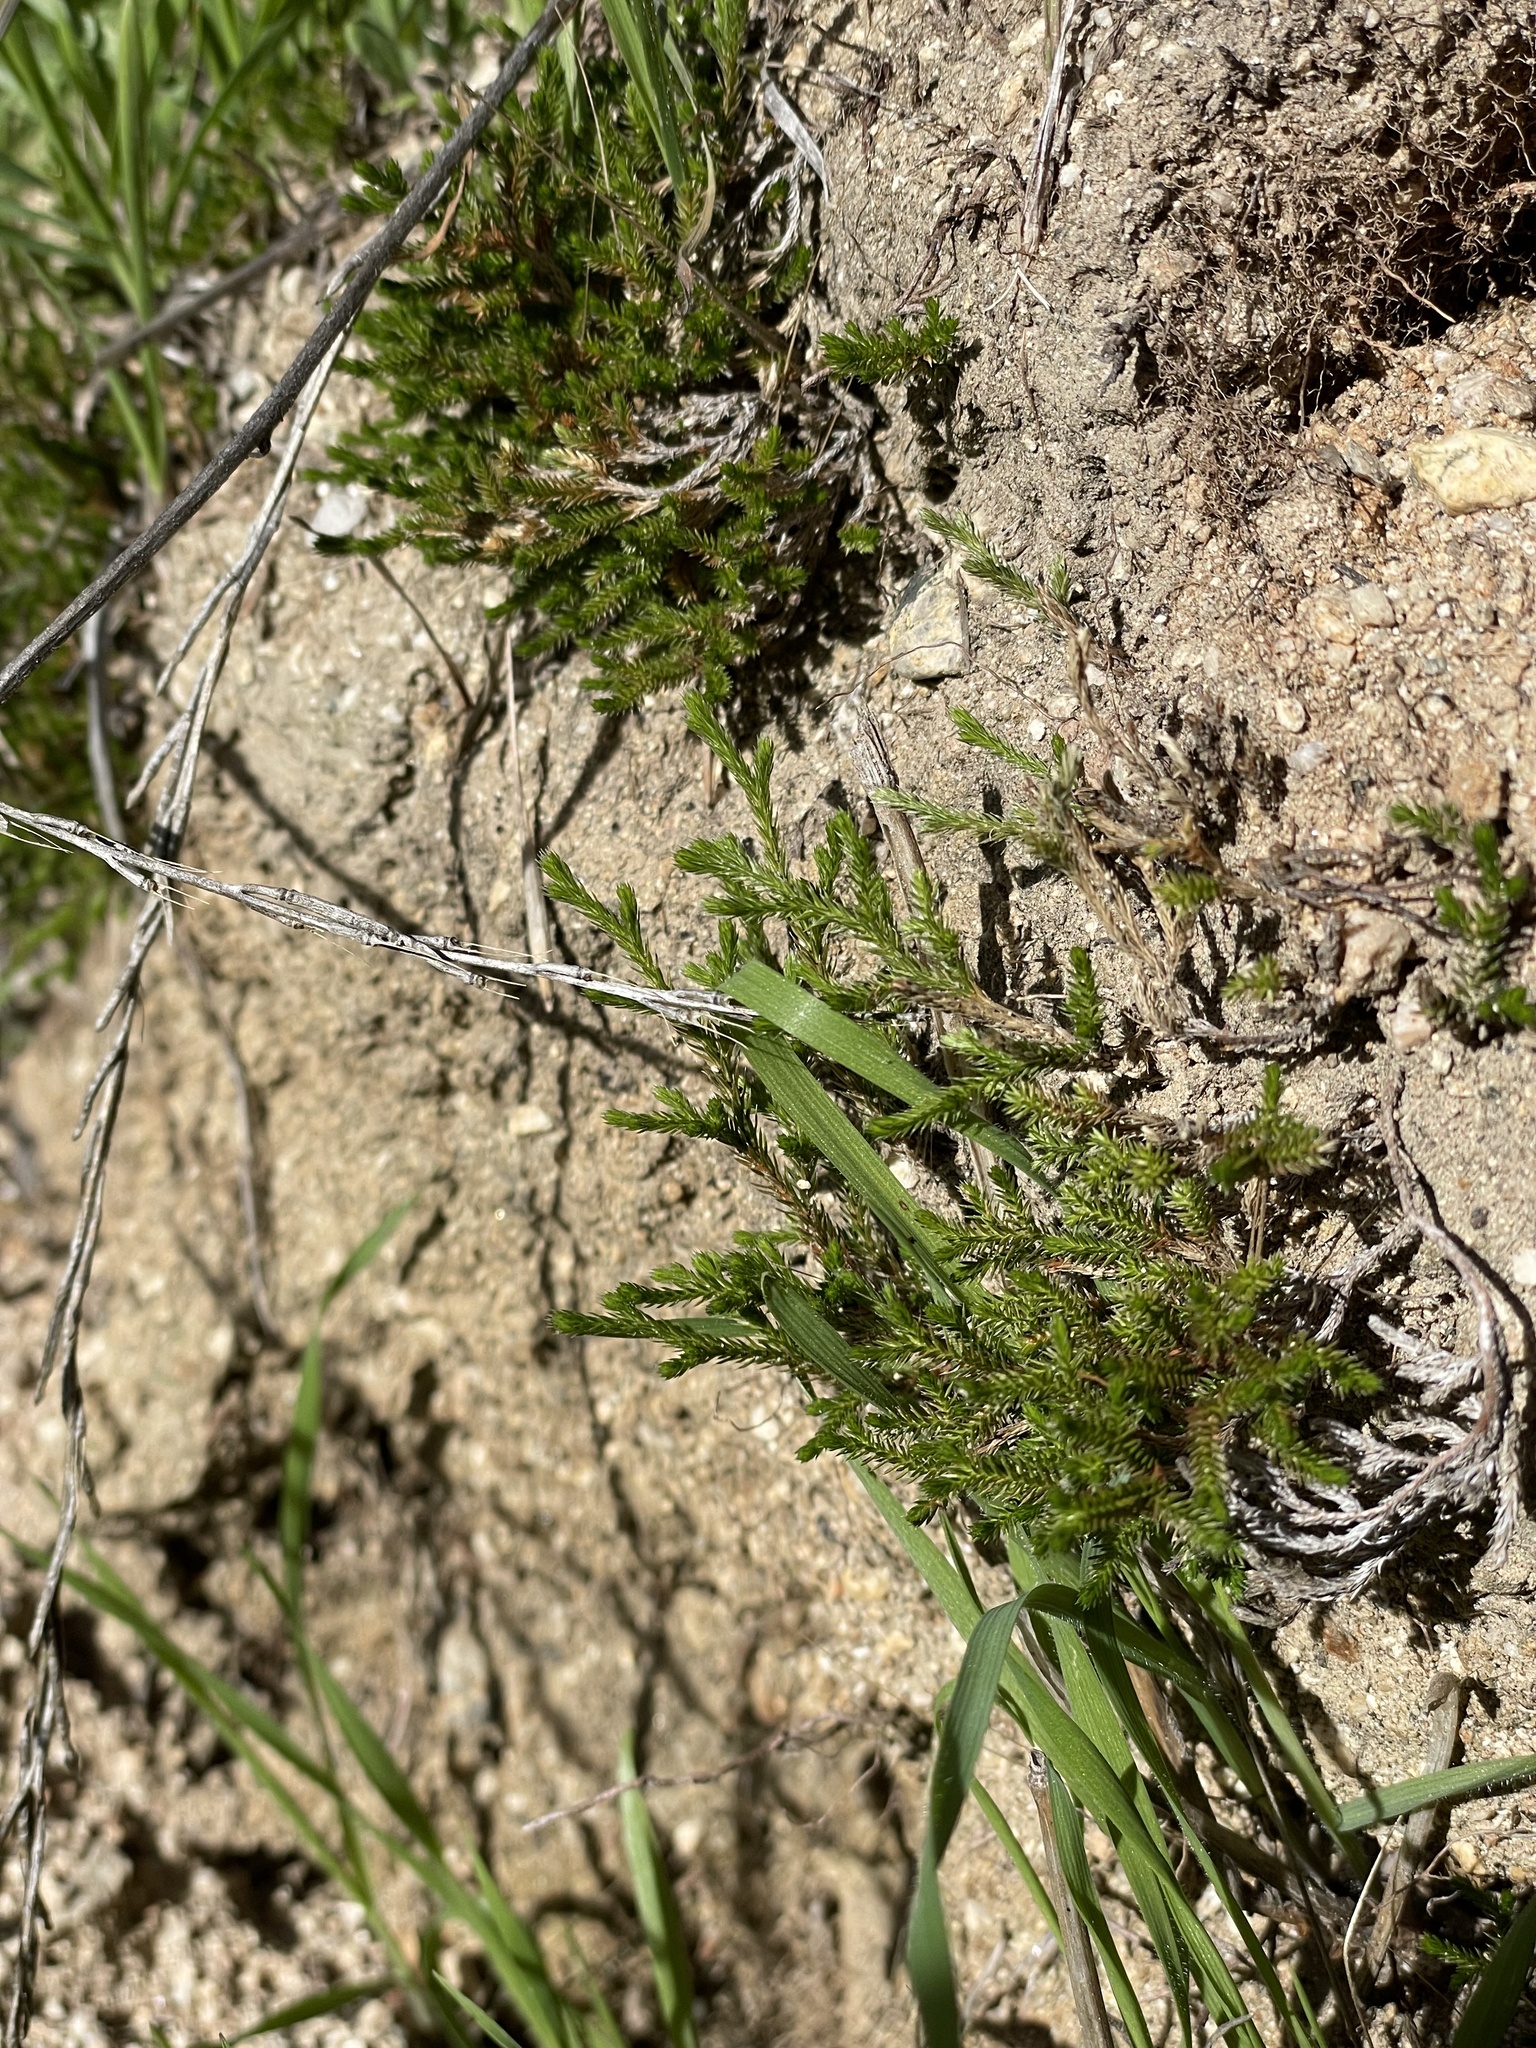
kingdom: Plantae
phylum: Tracheophyta
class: Lycopodiopsida
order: Selaginellales
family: Selaginellaceae
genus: Selaginella
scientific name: Selaginella bigelovii
